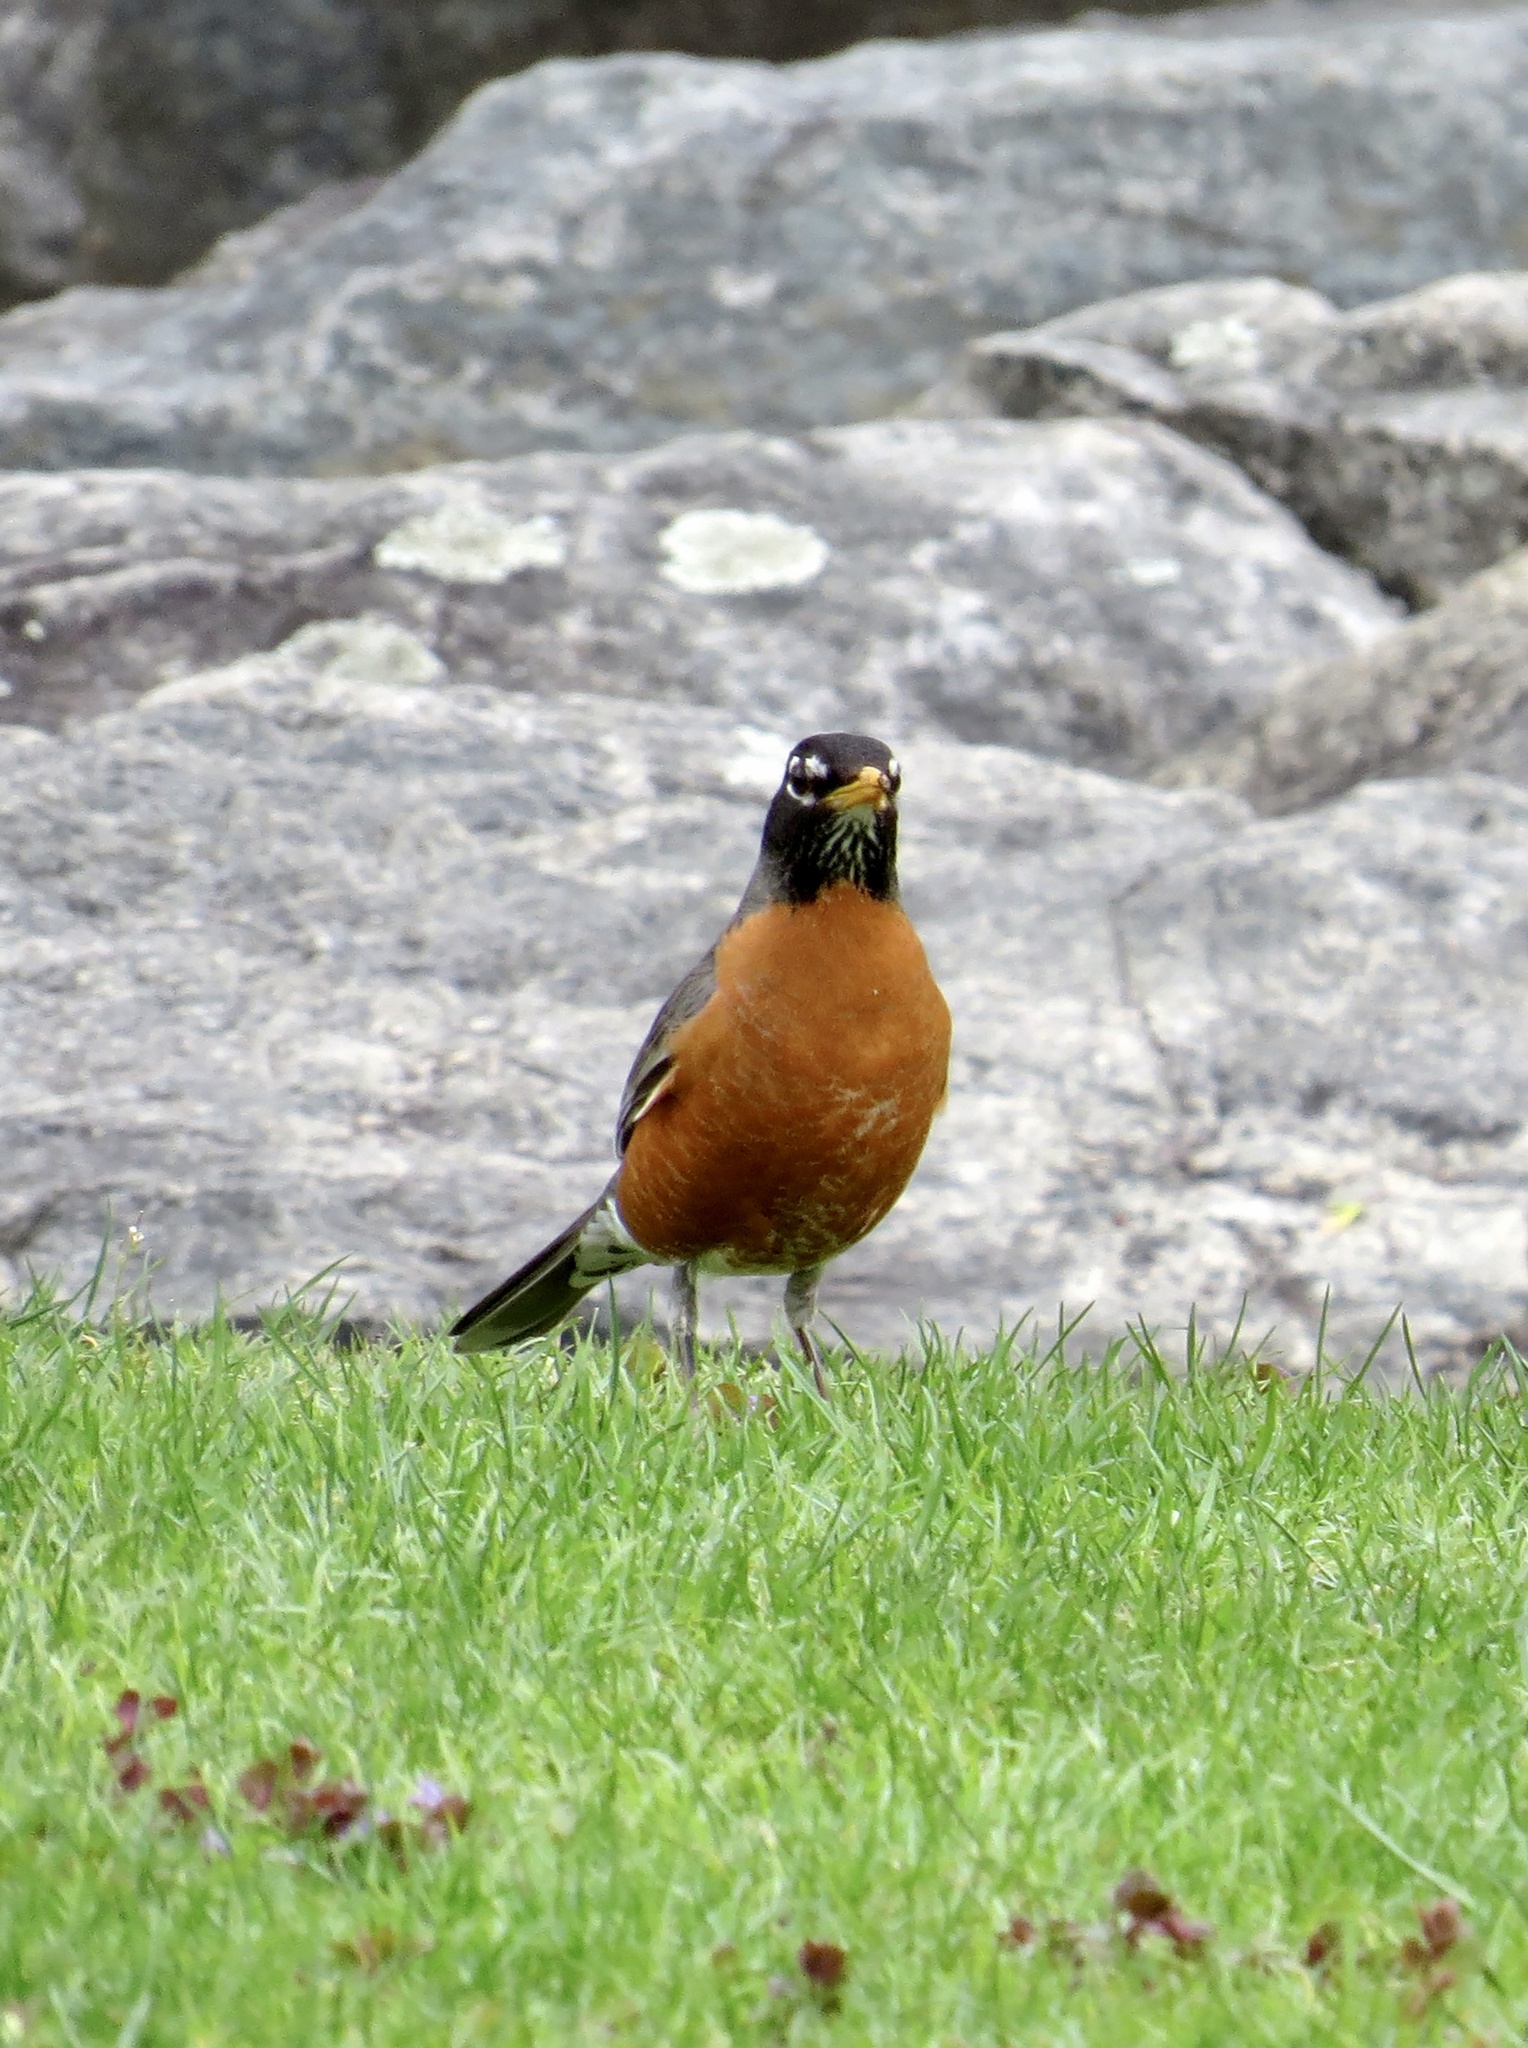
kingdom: Animalia
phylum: Chordata
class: Aves
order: Passeriformes
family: Turdidae
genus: Turdus
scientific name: Turdus migratorius
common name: American robin
